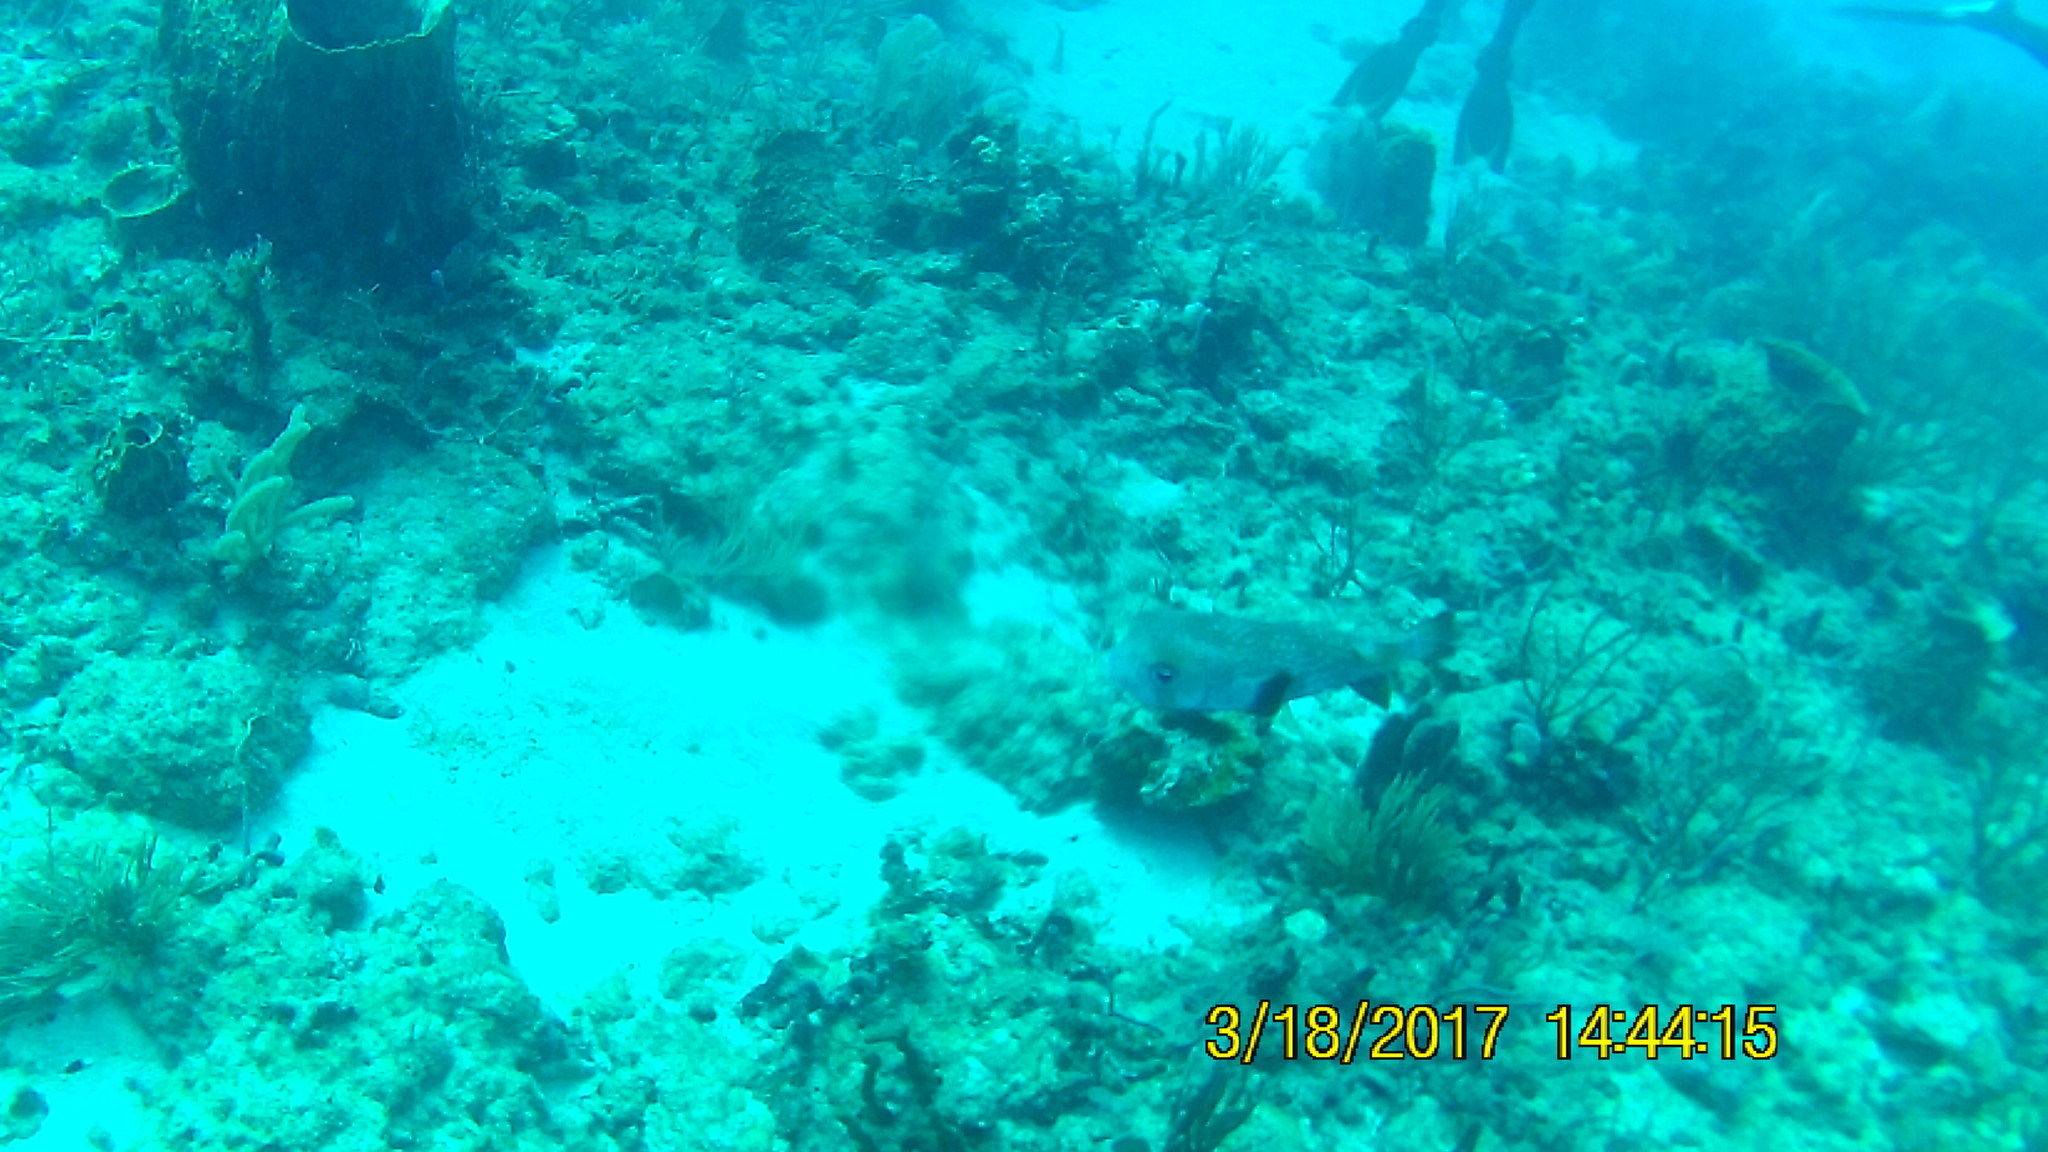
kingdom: Animalia
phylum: Chordata
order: Tetraodontiformes
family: Diodontidae
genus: Diodon
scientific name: Diodon hystrix
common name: Giant porcupinefish
